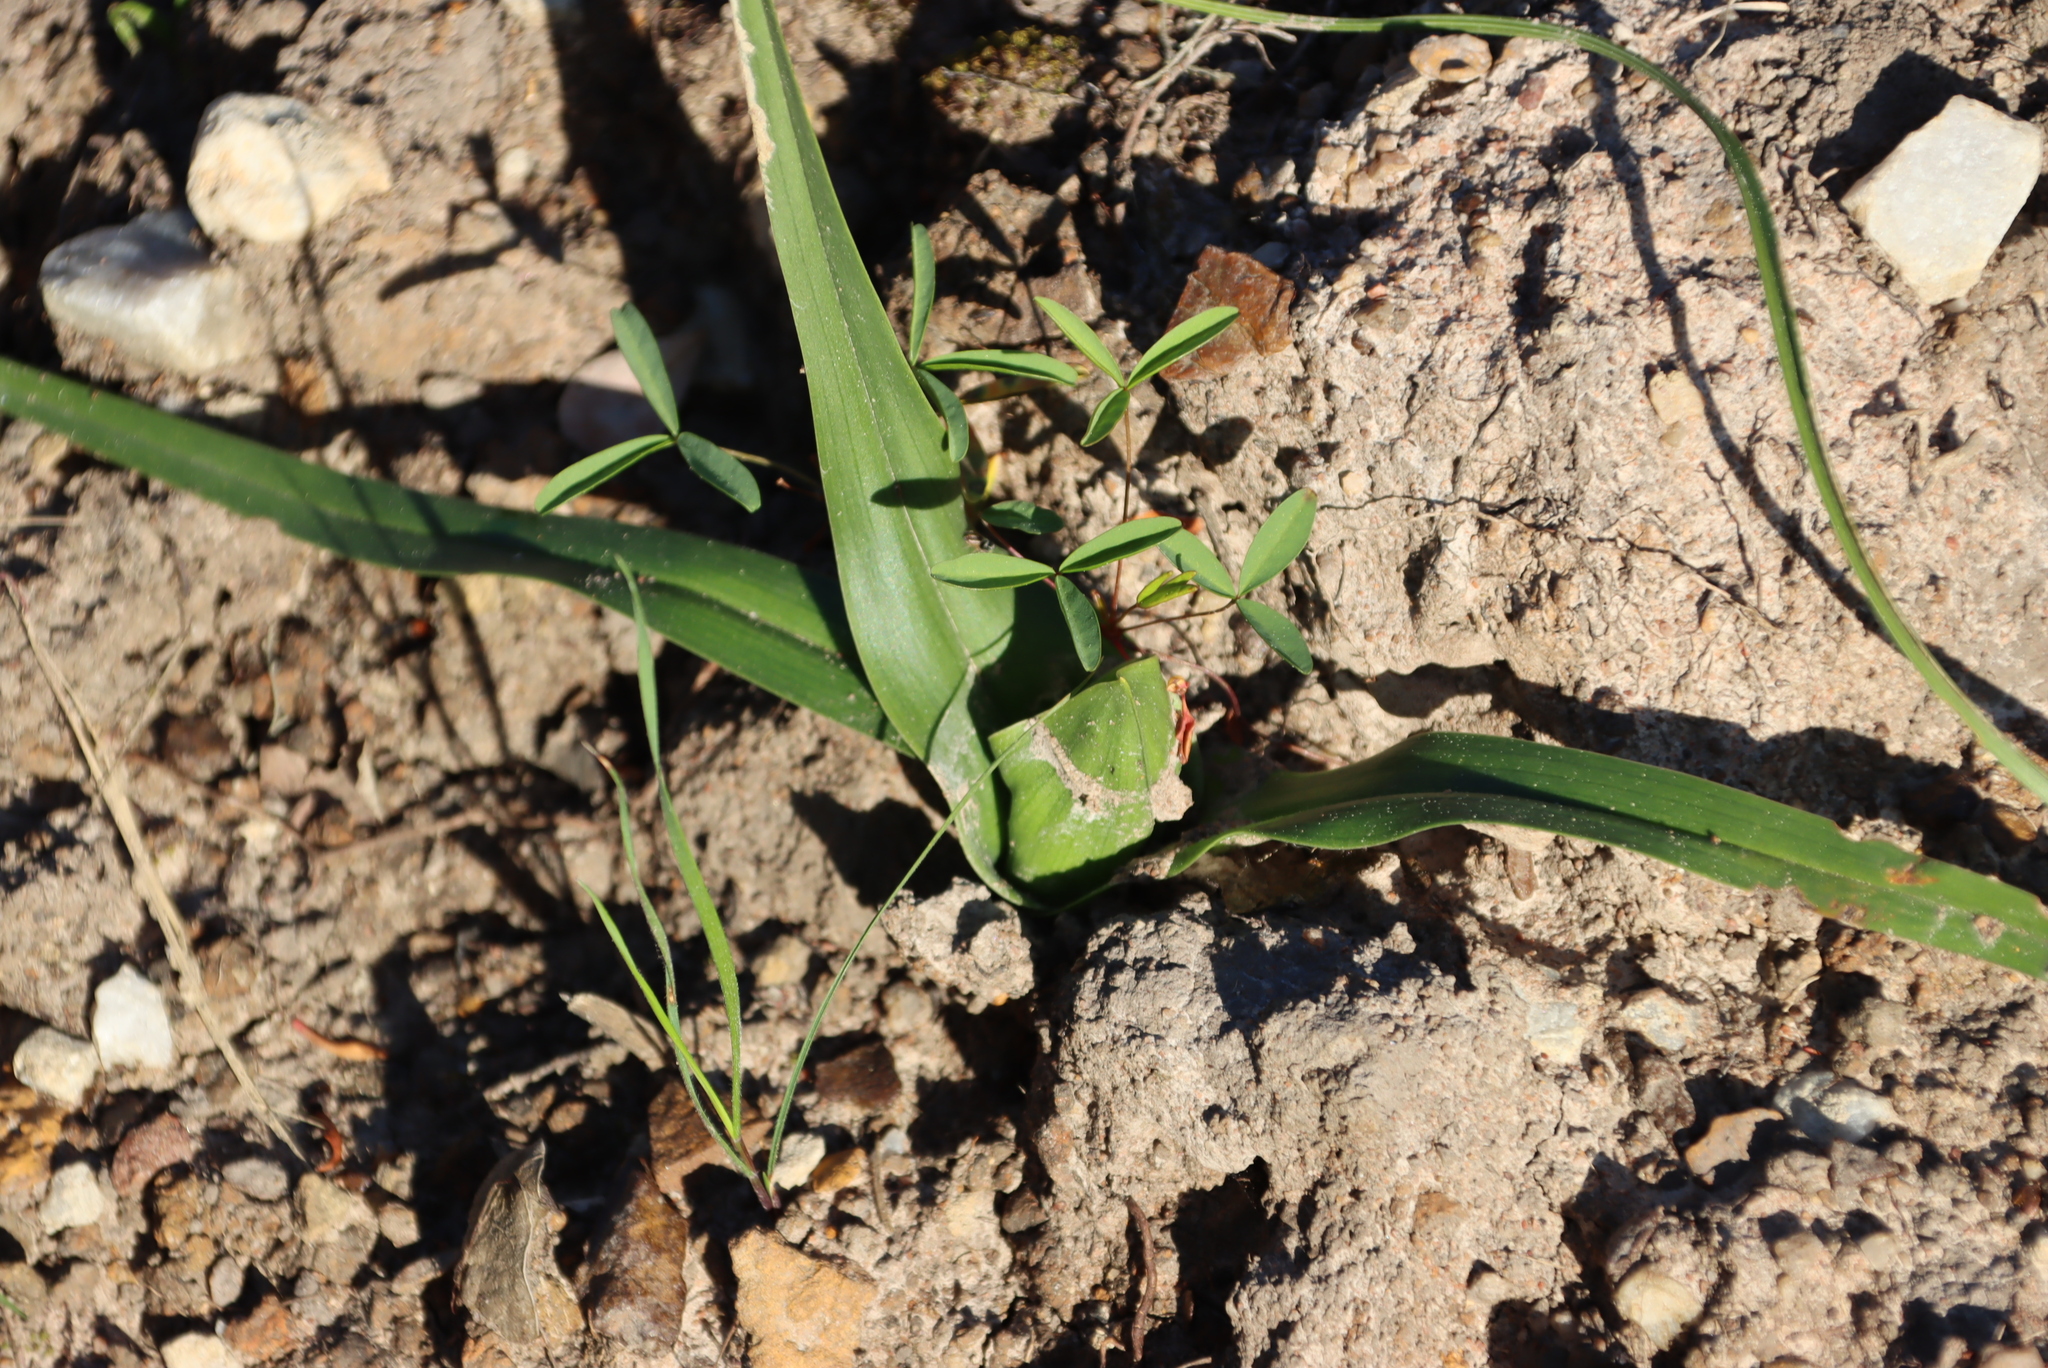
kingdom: Plantae
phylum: Tracheophyta
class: Liliopsida
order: Liliales
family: Colchicaceae
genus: Colchicum
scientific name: Colchicum eucomoides
